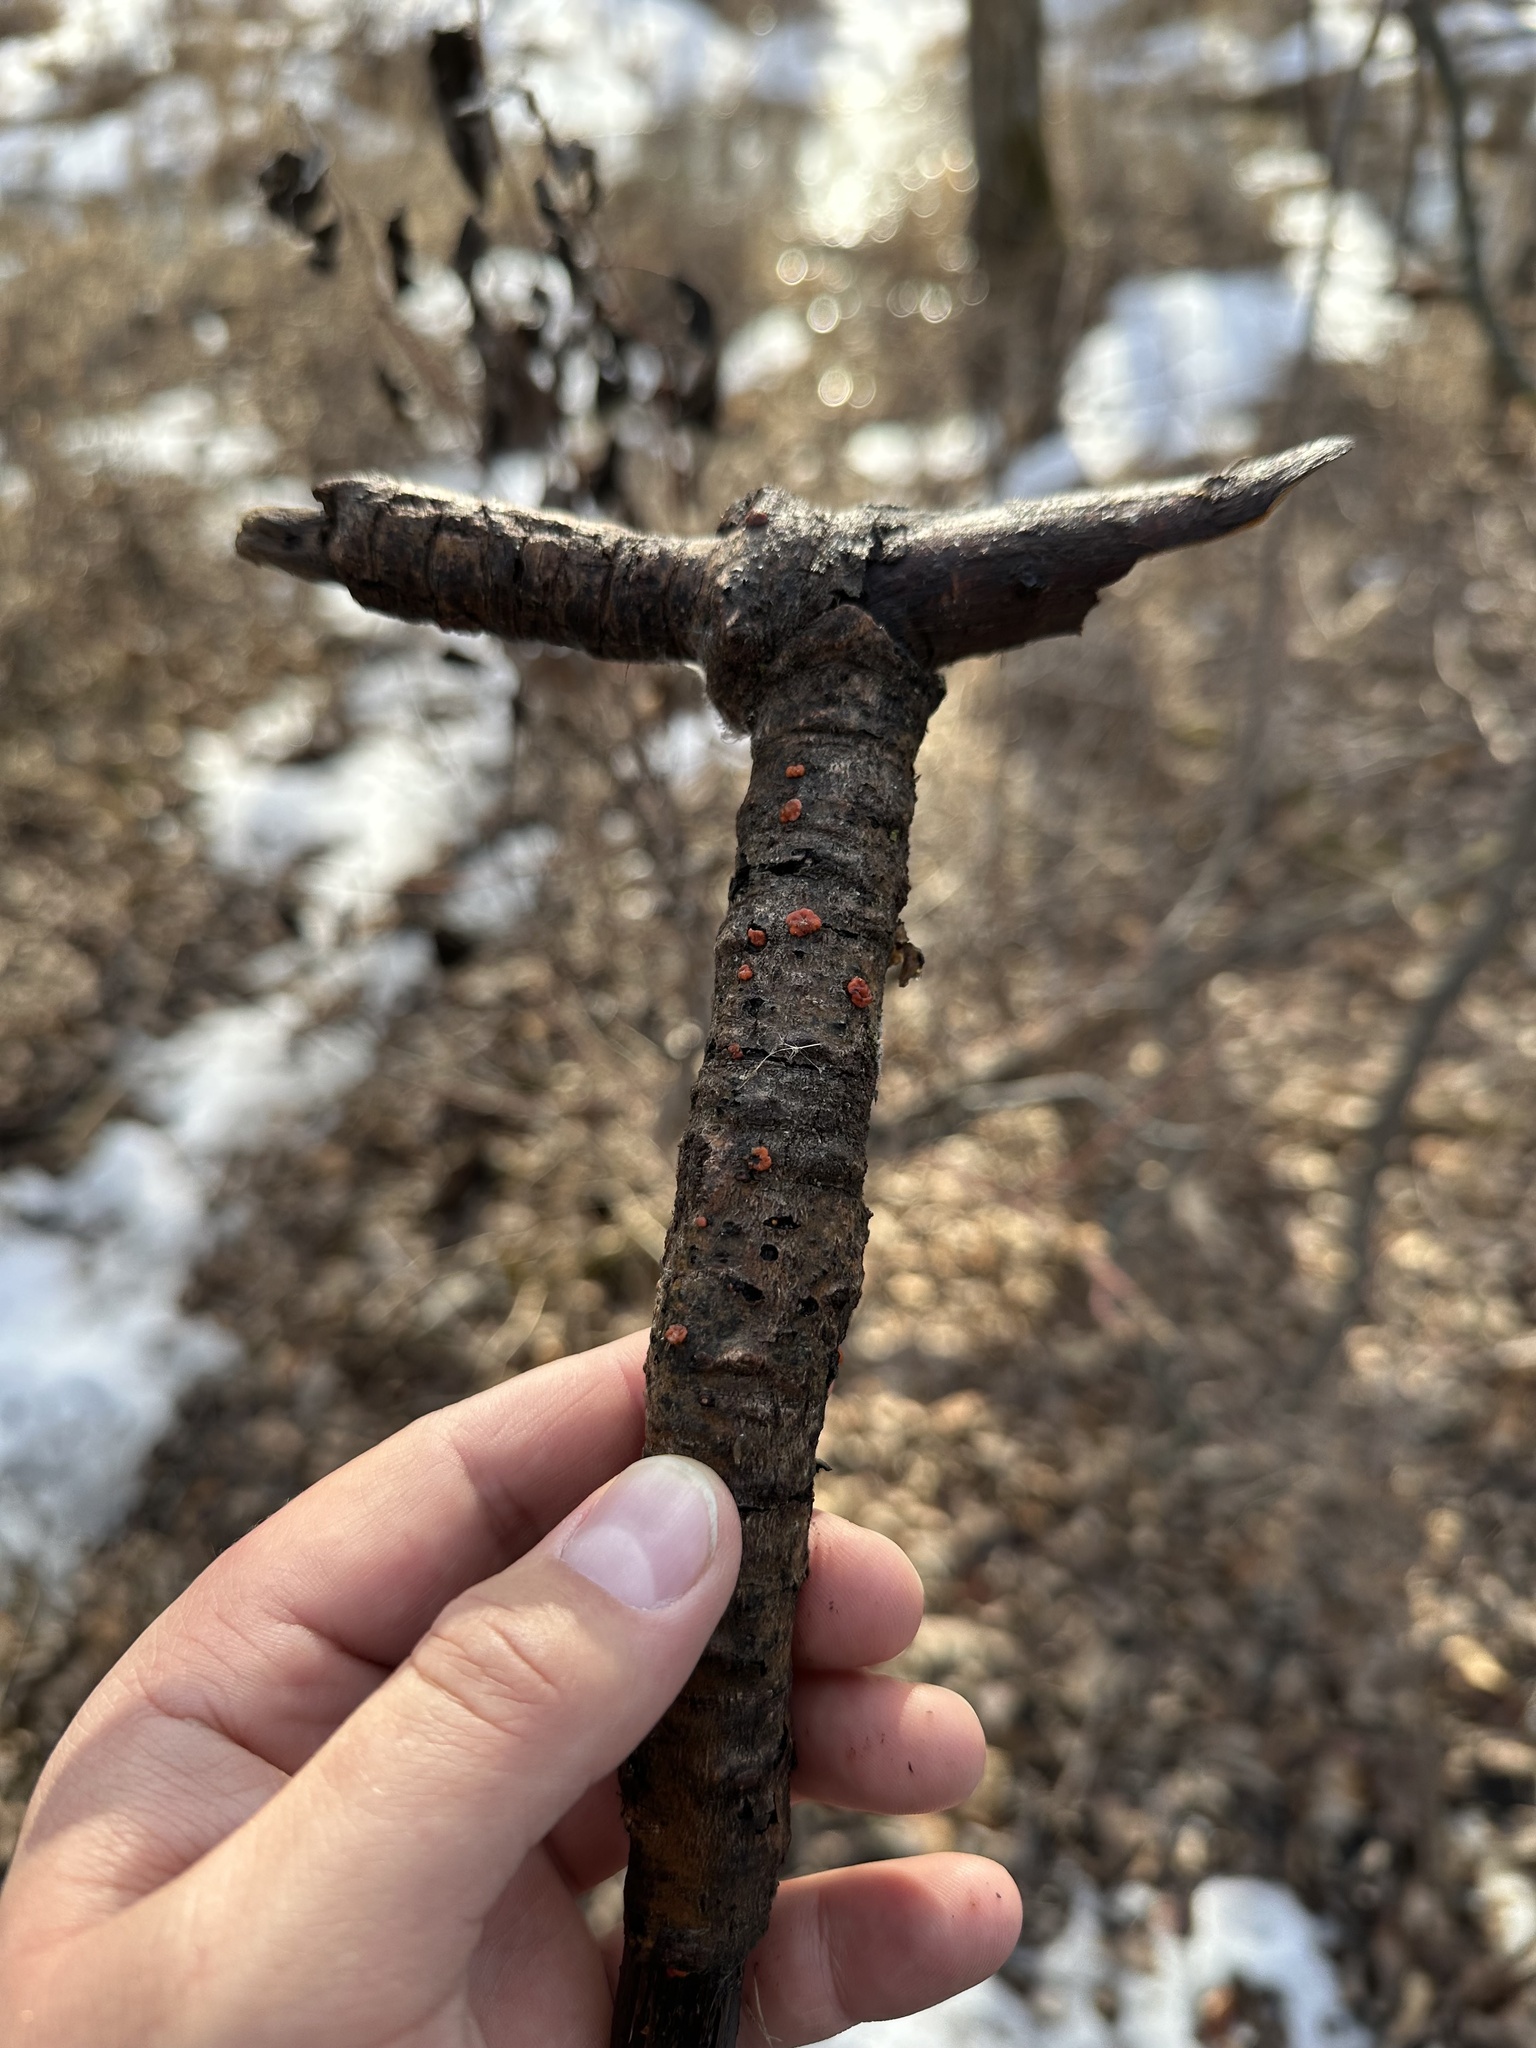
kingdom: Fungi
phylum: Basidiomycota
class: Agaricomycetes
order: Russulales
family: Peniophoraceae
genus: Peniophora
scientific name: Peniophora rufa
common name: Red tree brain fungus
